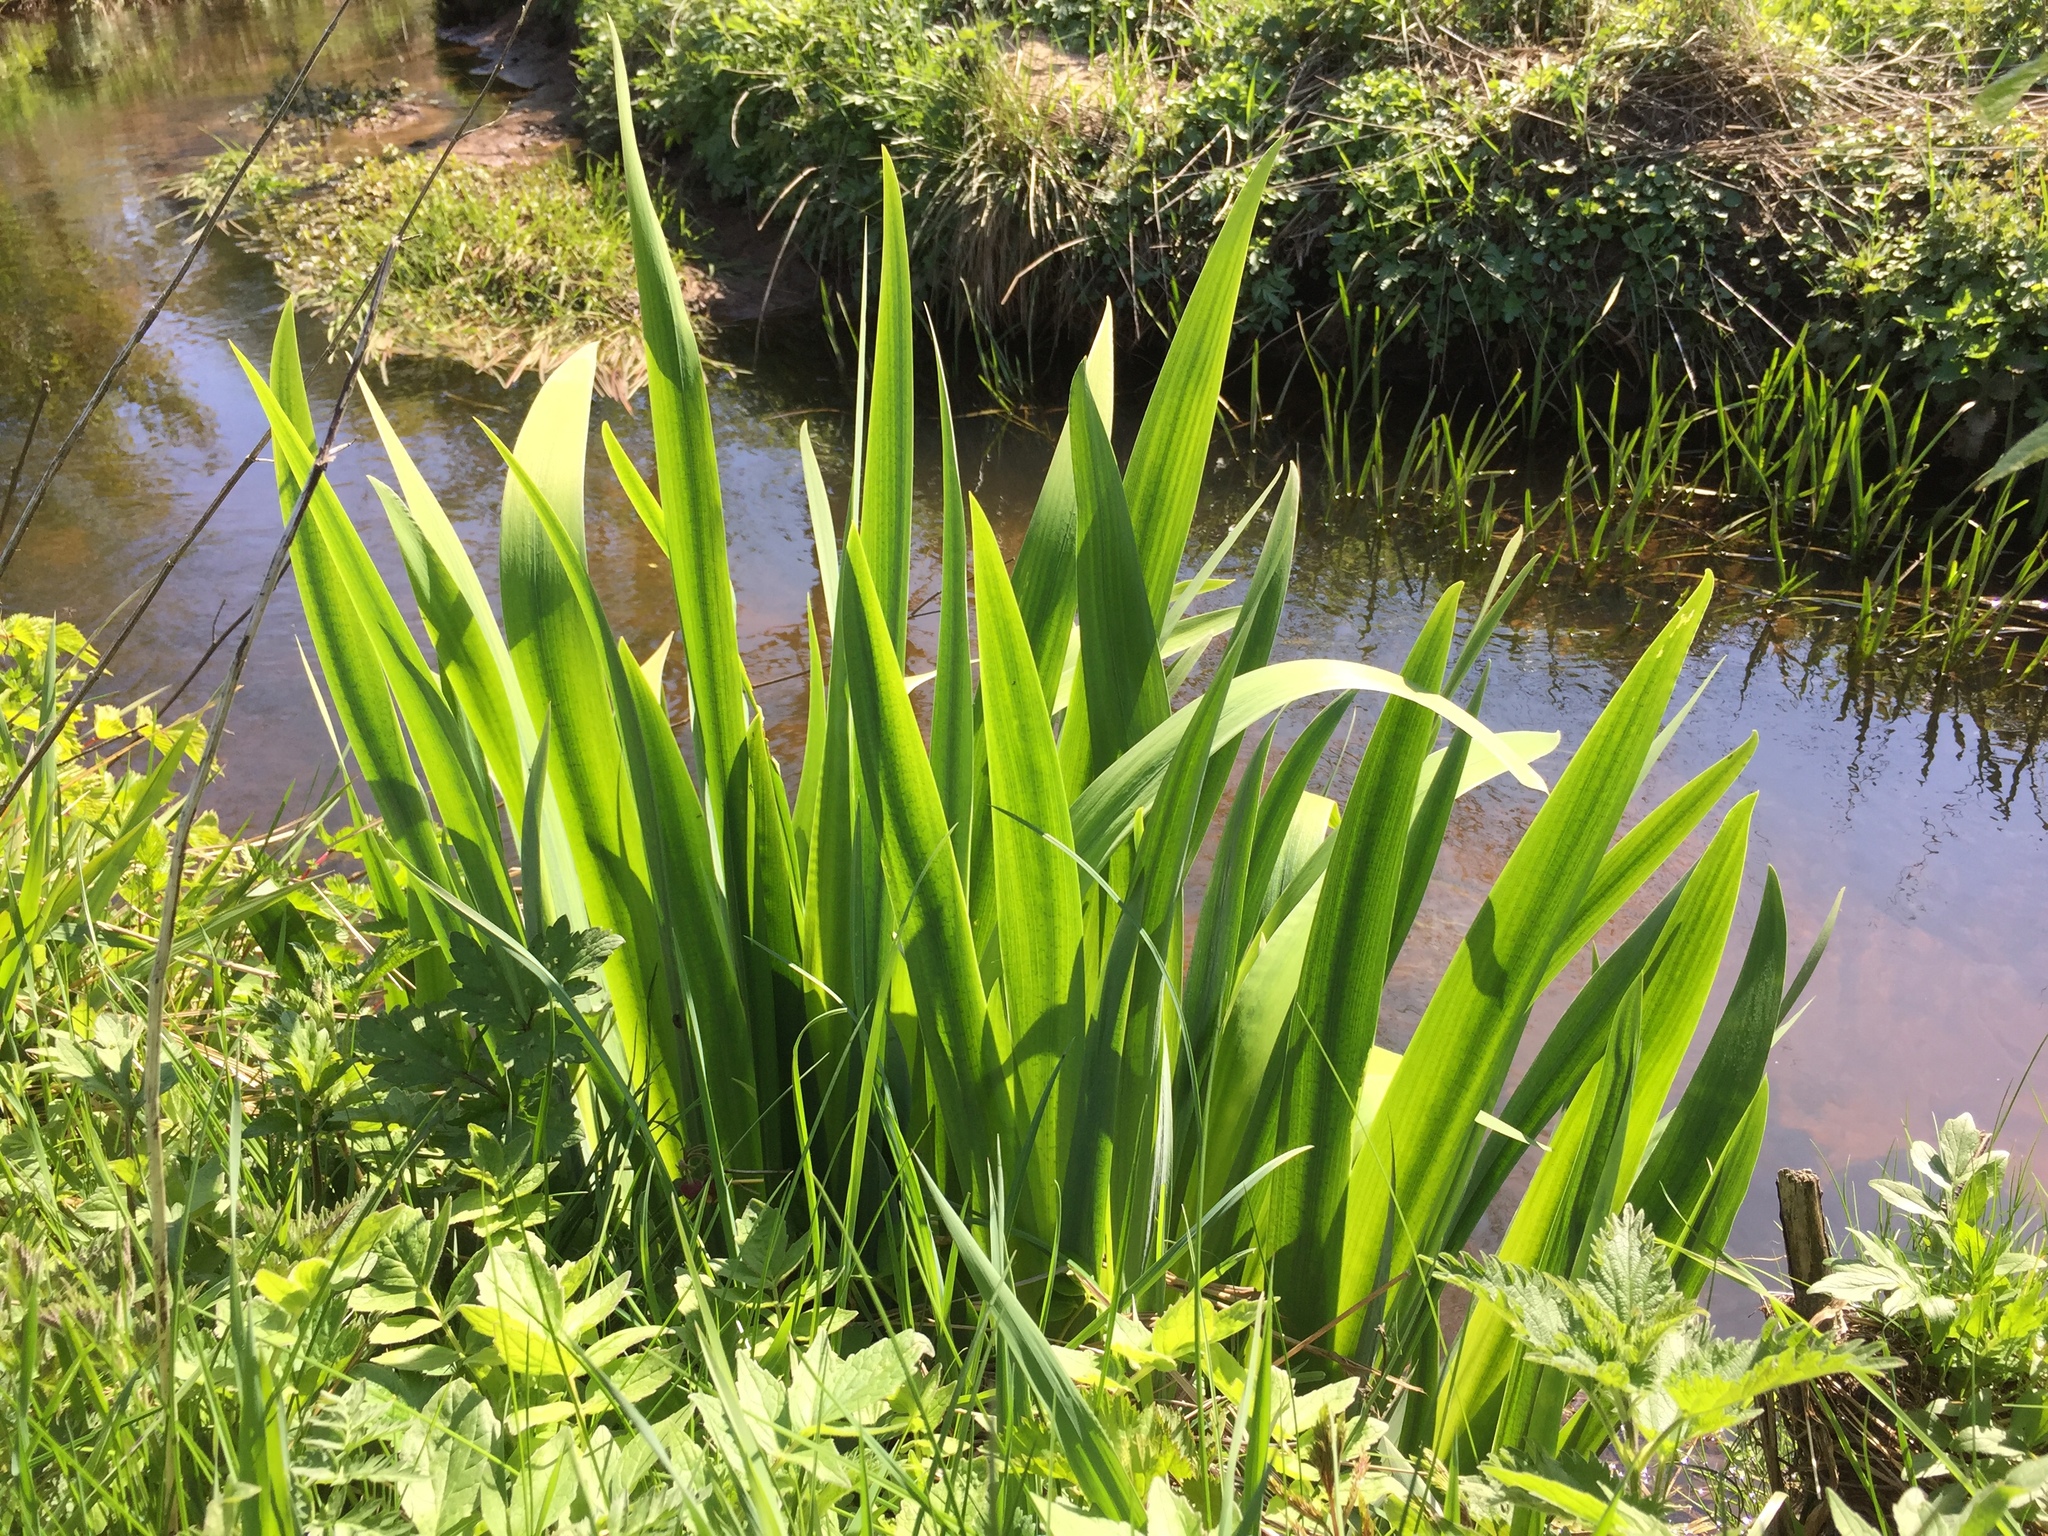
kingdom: Plantae
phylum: Tracheophyta
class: Liliopsida
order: Asparagales
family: Iridaceae
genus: Iris
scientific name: Iris pseudacorus
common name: Yellow flag
